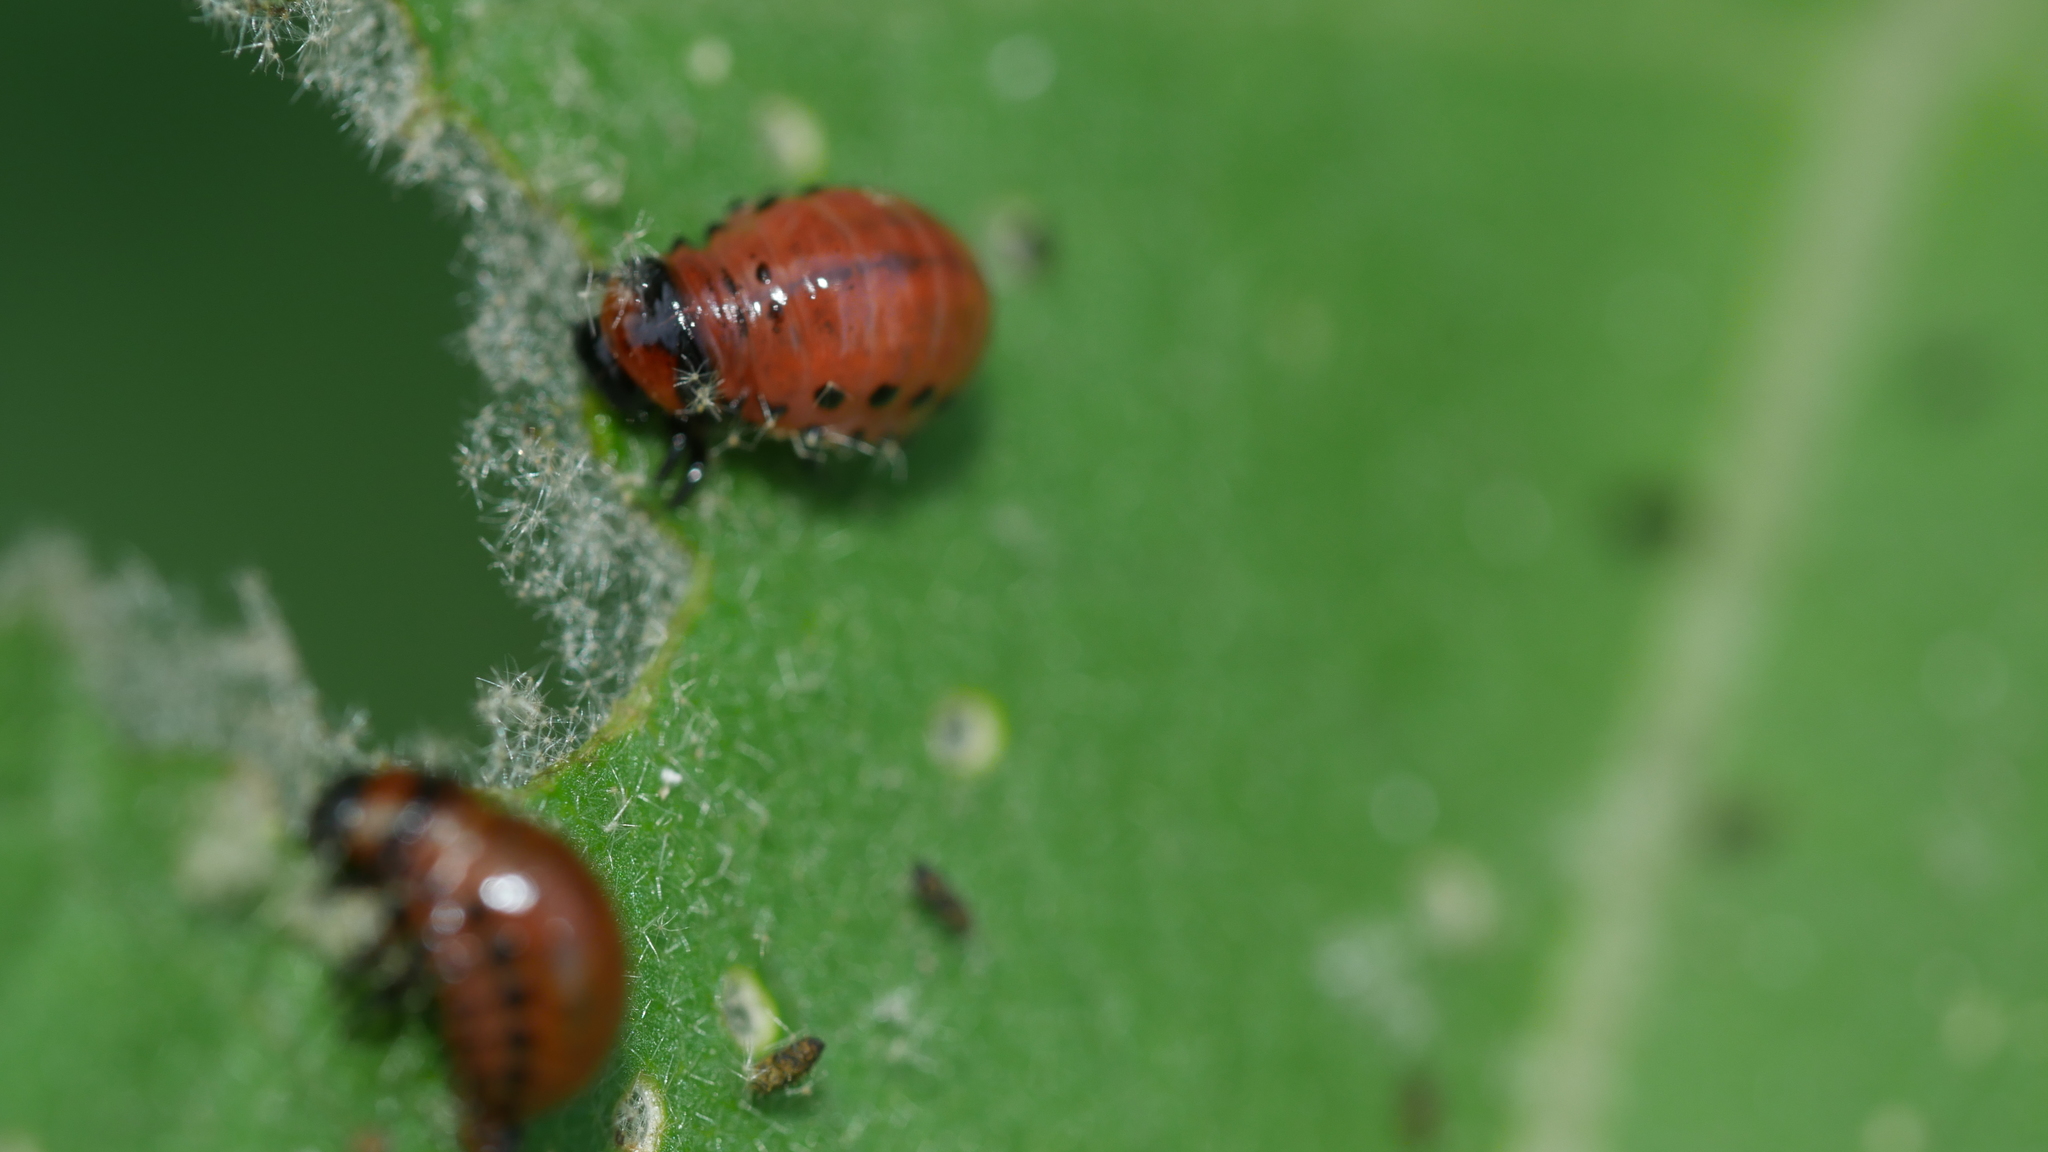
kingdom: Animalia
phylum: Arthropoda
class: Insecta
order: Coleoptera
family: Chrysomelidae
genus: Leptinotarsa
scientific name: Leptinotarsa decemlineata
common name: Colorado potato beetle
